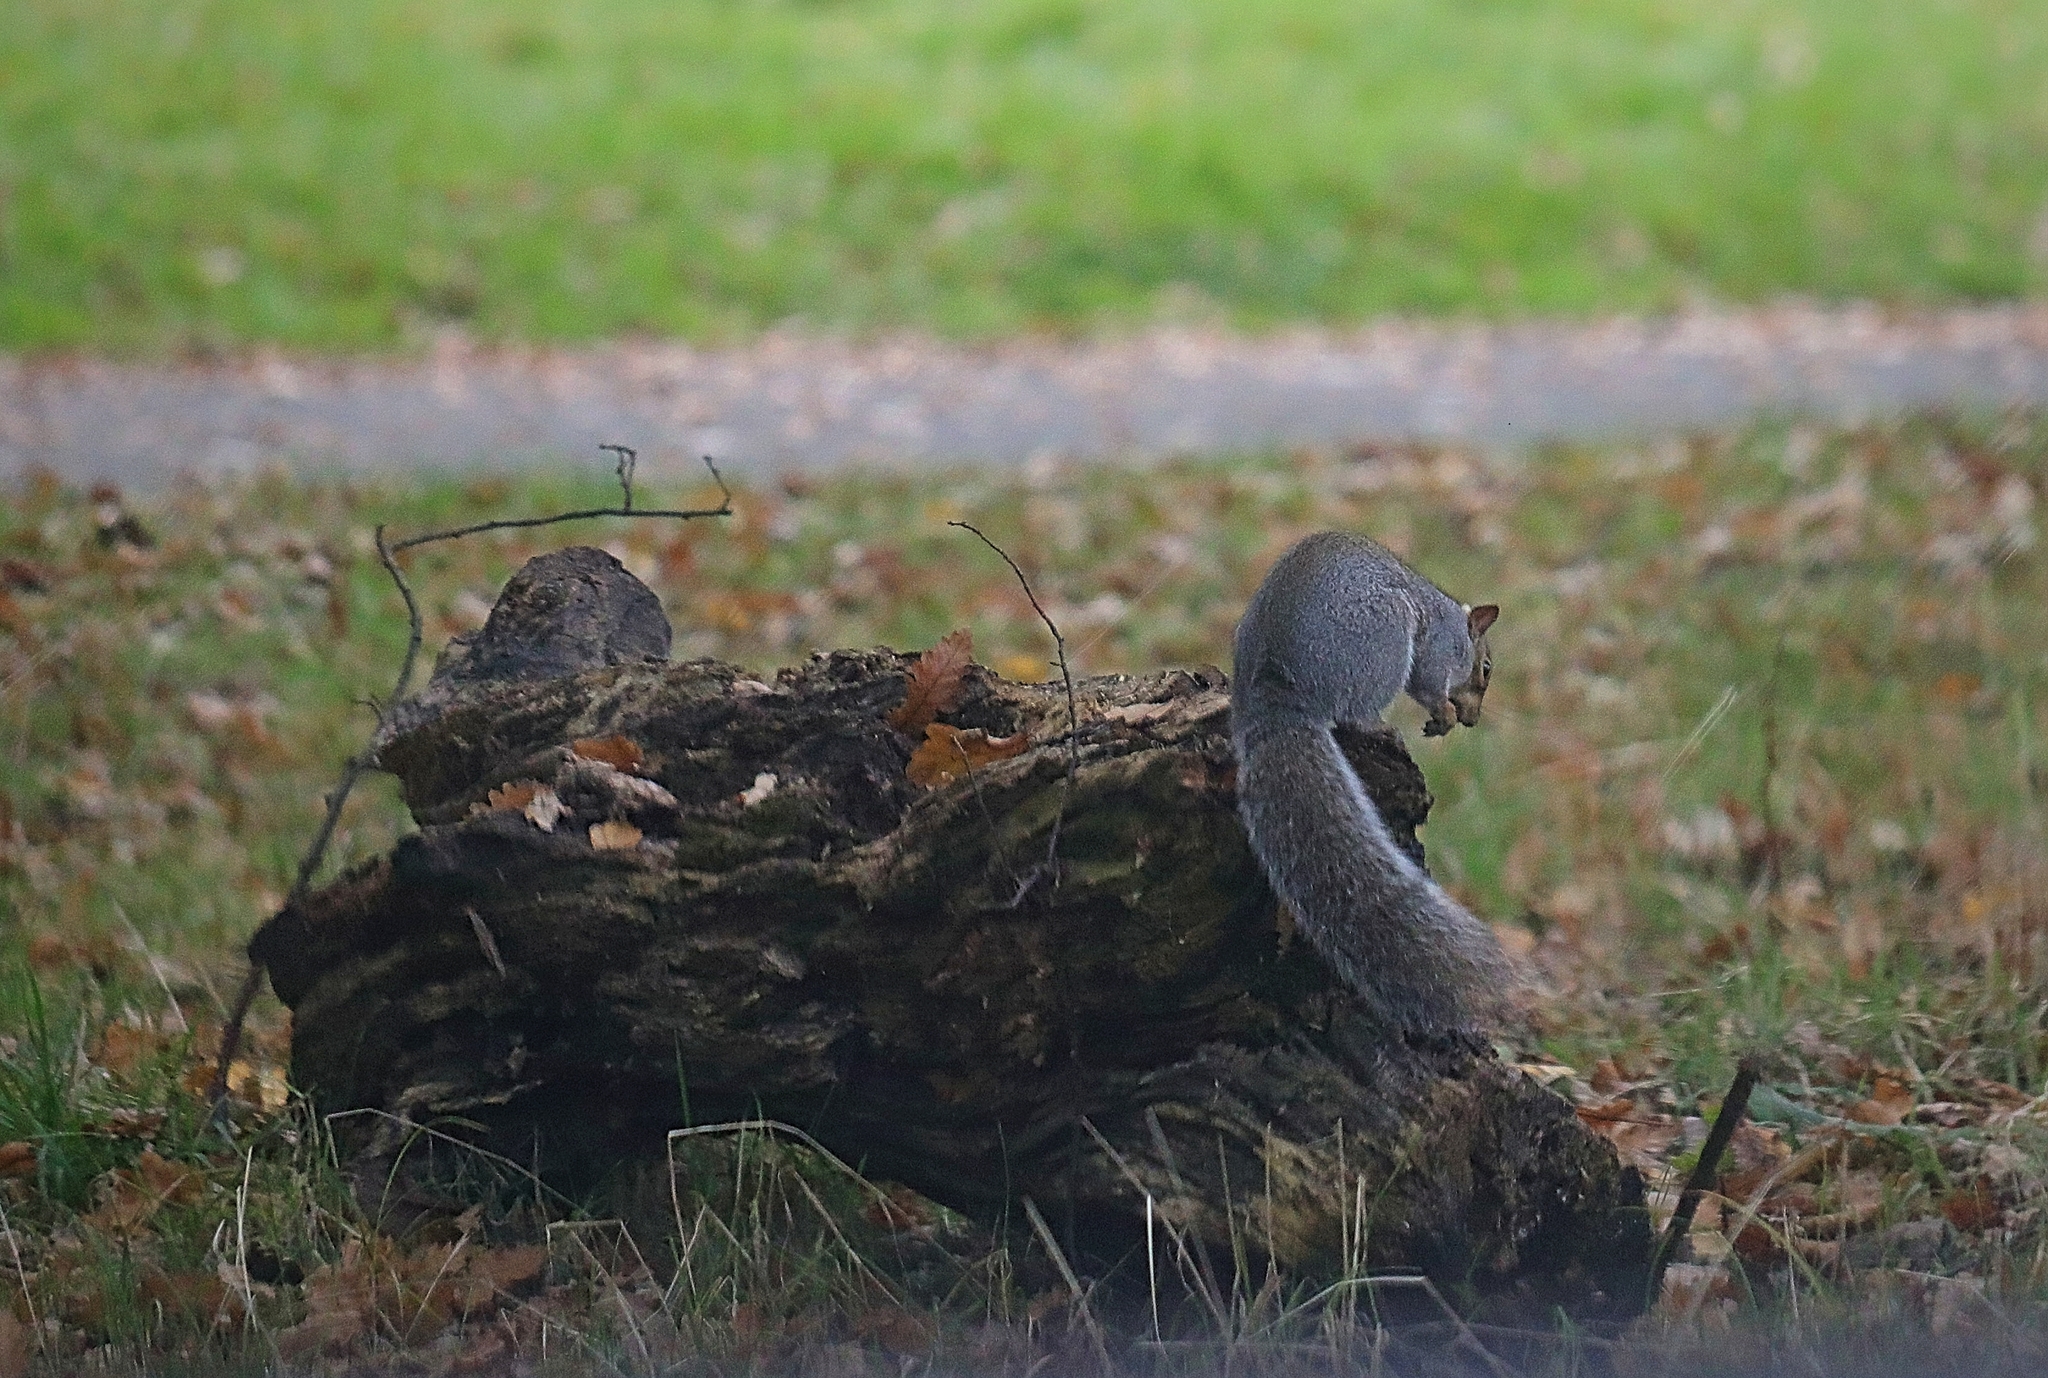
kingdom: Animalia
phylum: Chordata
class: Mammalia
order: Rodentia
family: Sciuridae
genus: Sciurus
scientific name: Sciurus carolinensis
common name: Eastern gray squirrel
